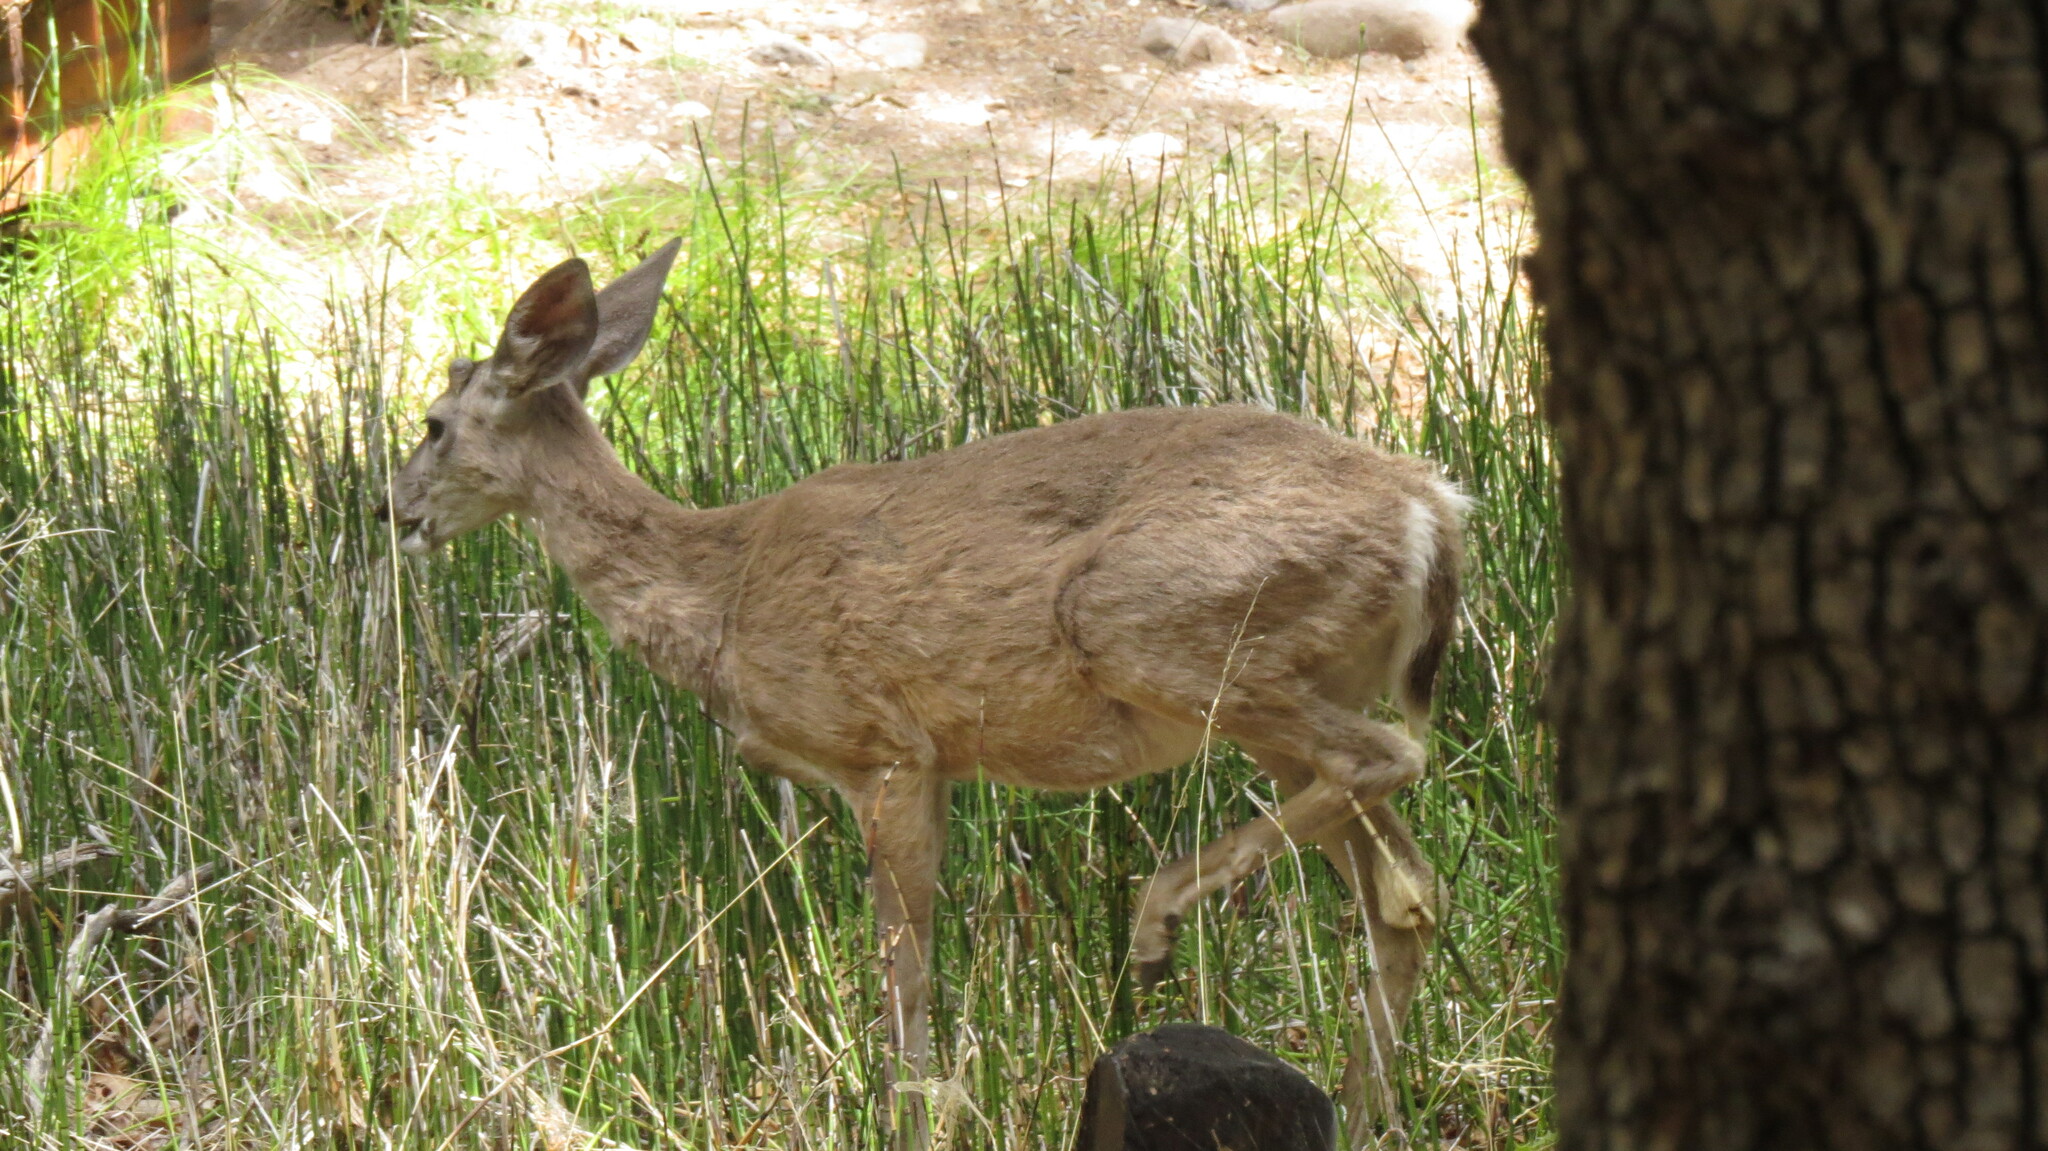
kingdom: Animalia
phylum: Chordata
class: Mammalia
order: Artiodactyla
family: Cervidae
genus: Odocoileus
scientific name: Odocoileus virginianus
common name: White-tailed deer
